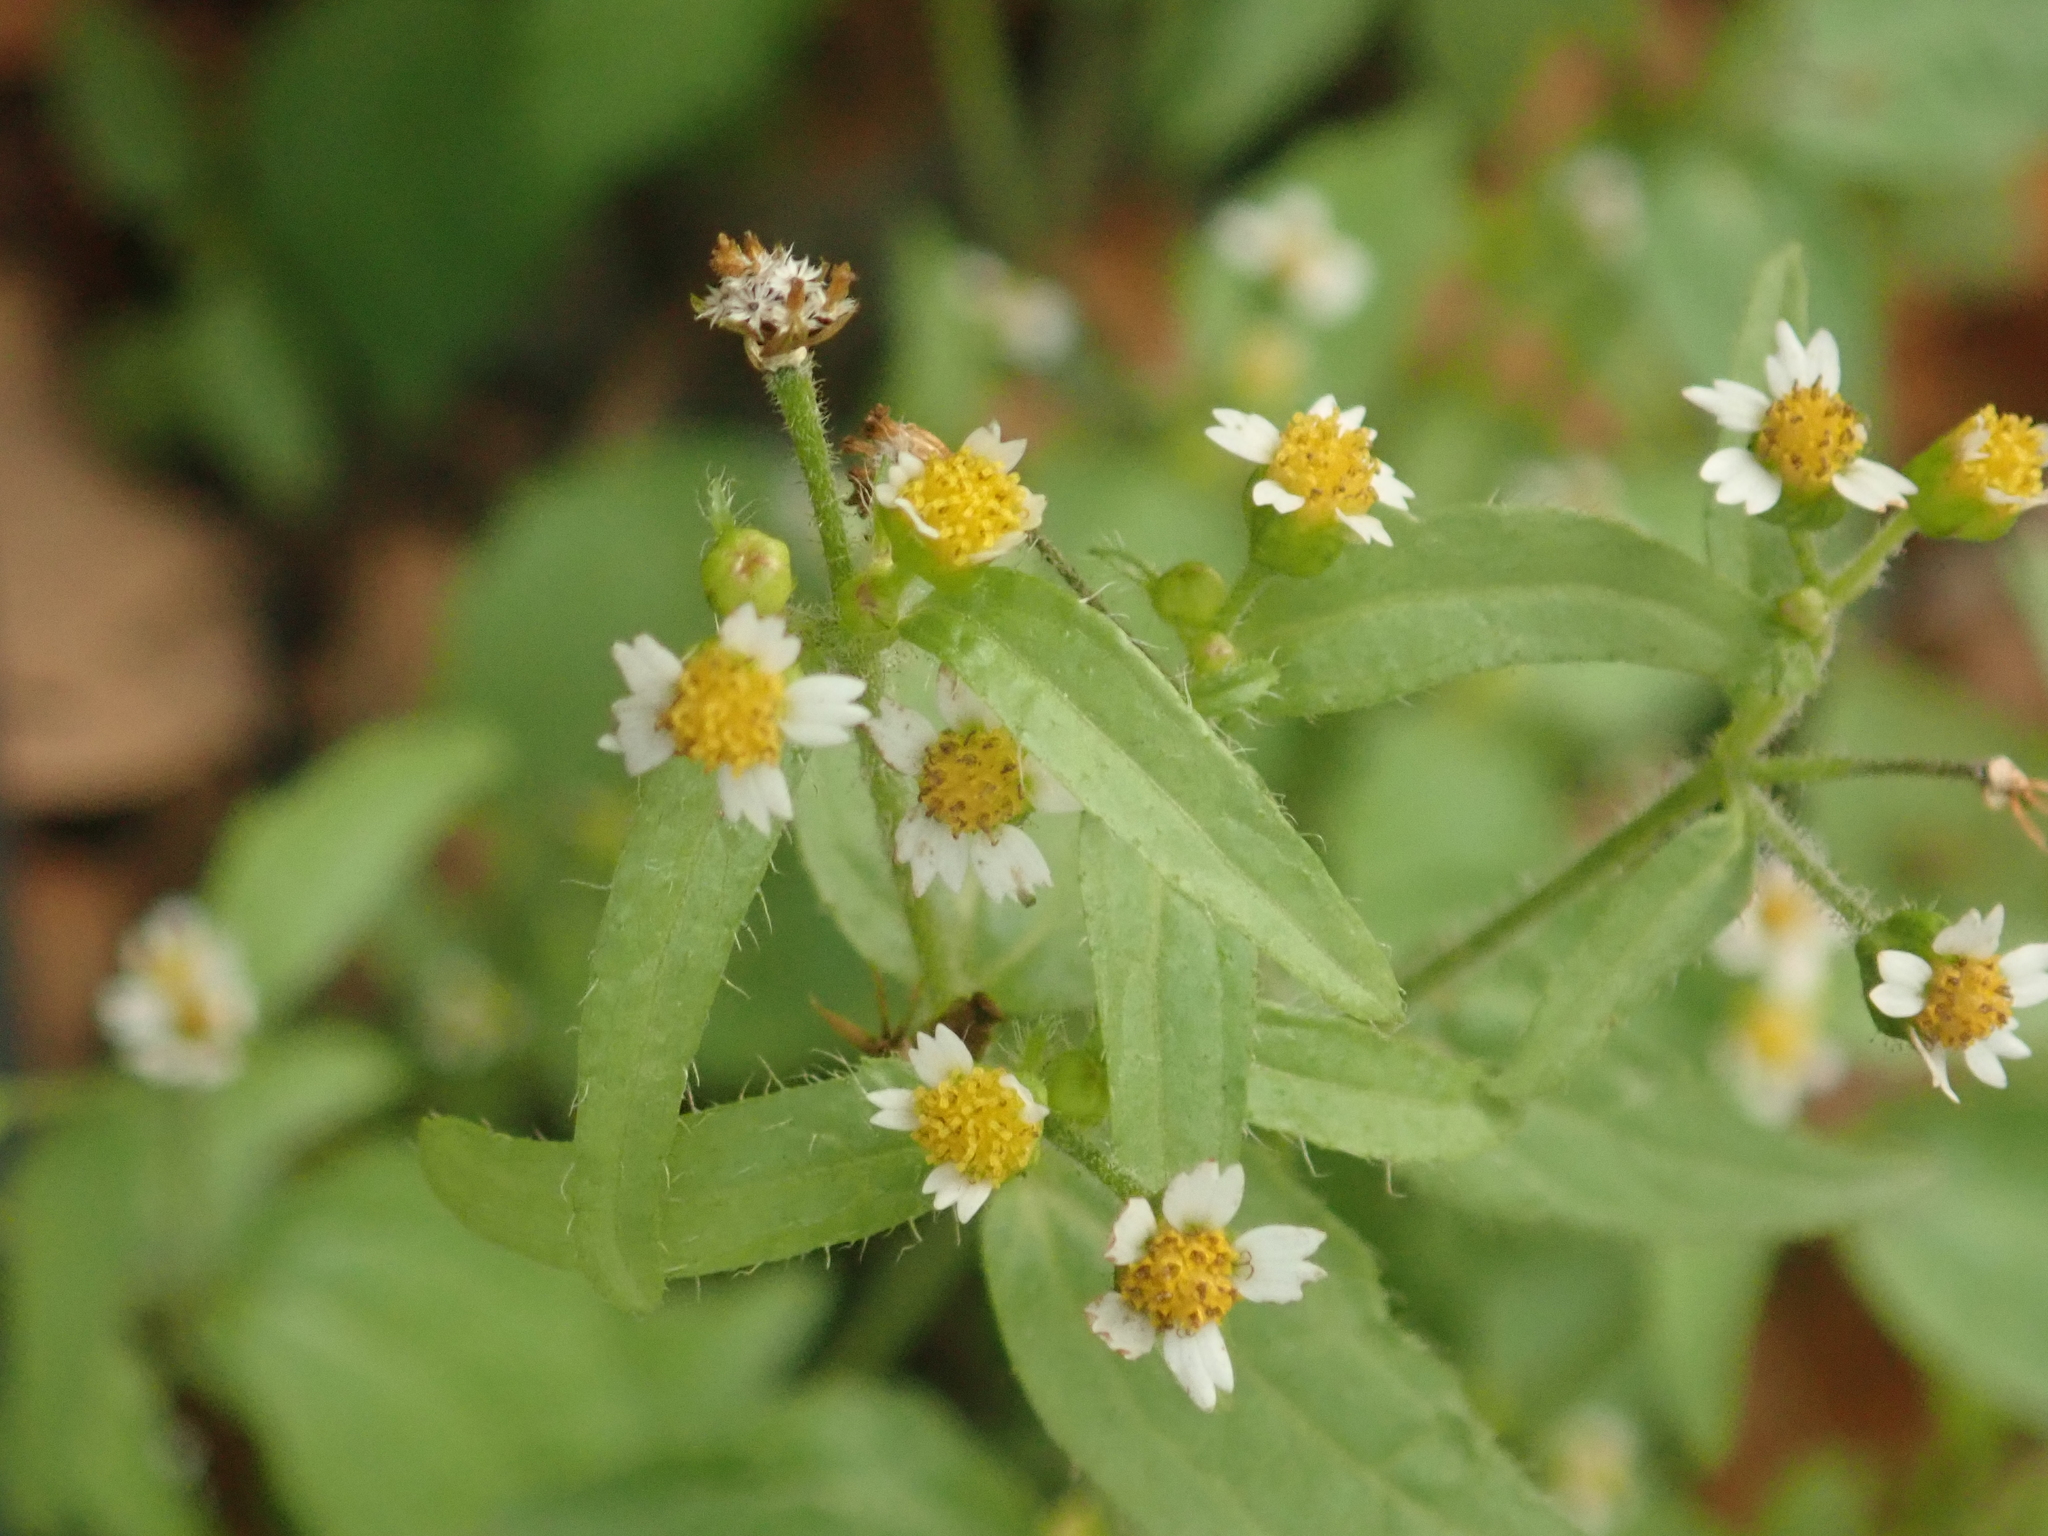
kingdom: Plantae
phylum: Tracheophyta
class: Magnoliopsida
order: Asterales
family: Asteraceae
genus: Galinsoga
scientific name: Galinsoga quadriradiata
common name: Shaggy soldier
